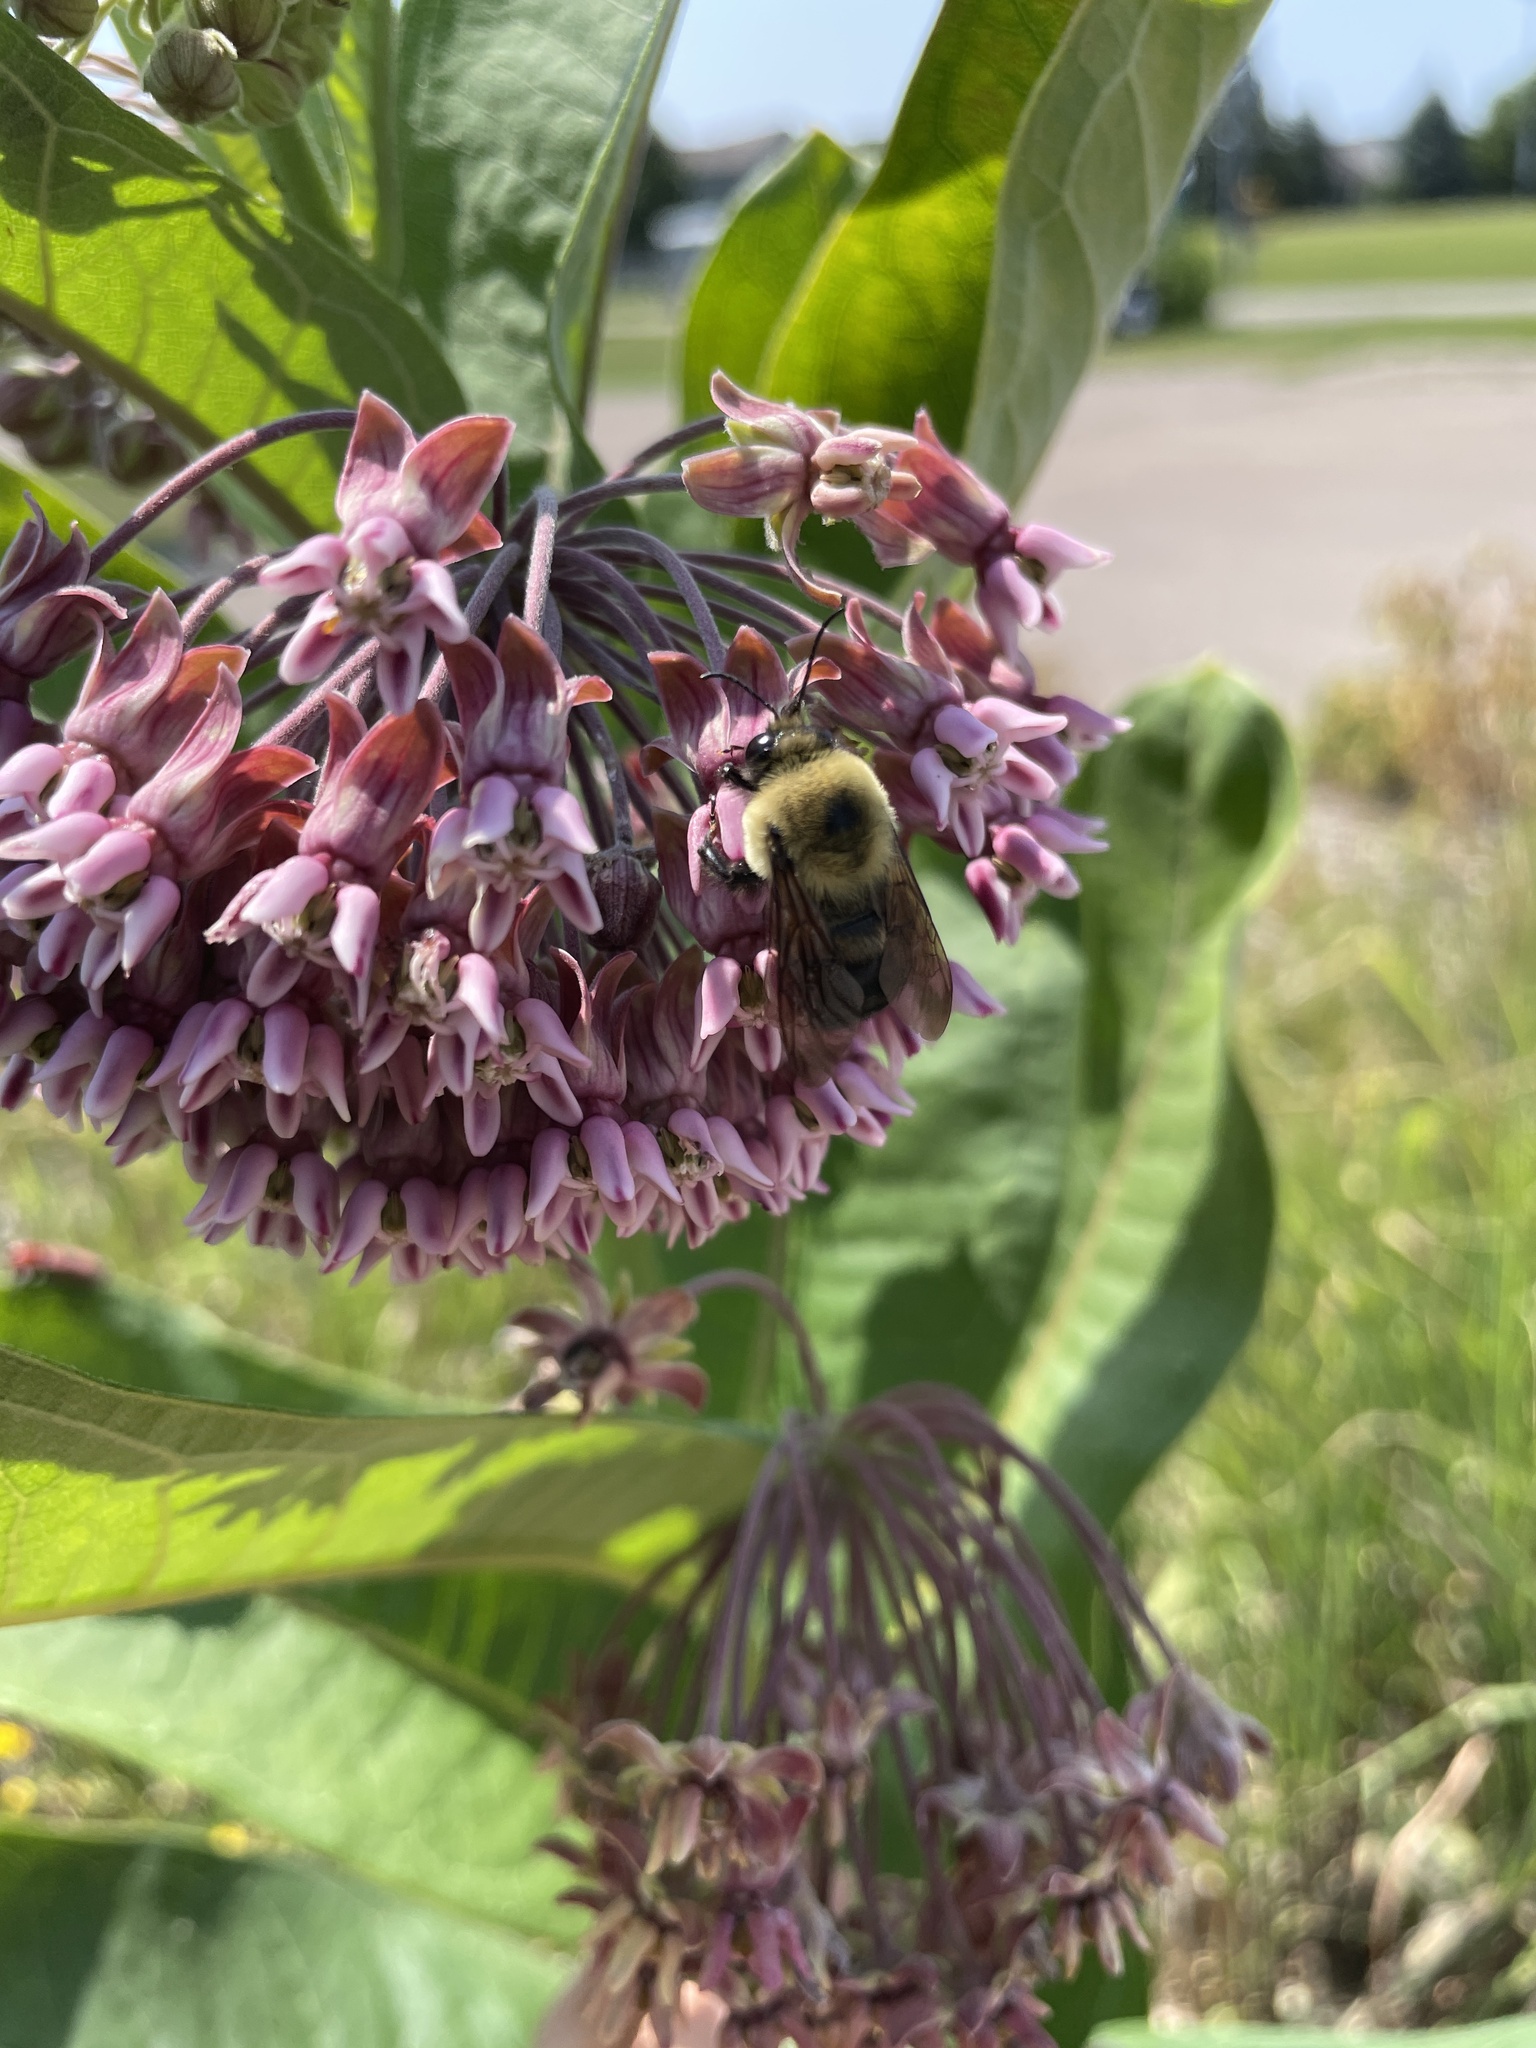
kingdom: Animalia
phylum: Arthropoda
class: Insecta
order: Hymenoptera
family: Apidae
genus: Bombus
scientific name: Bombus griseocollis
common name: Brown-belted bumble bee
